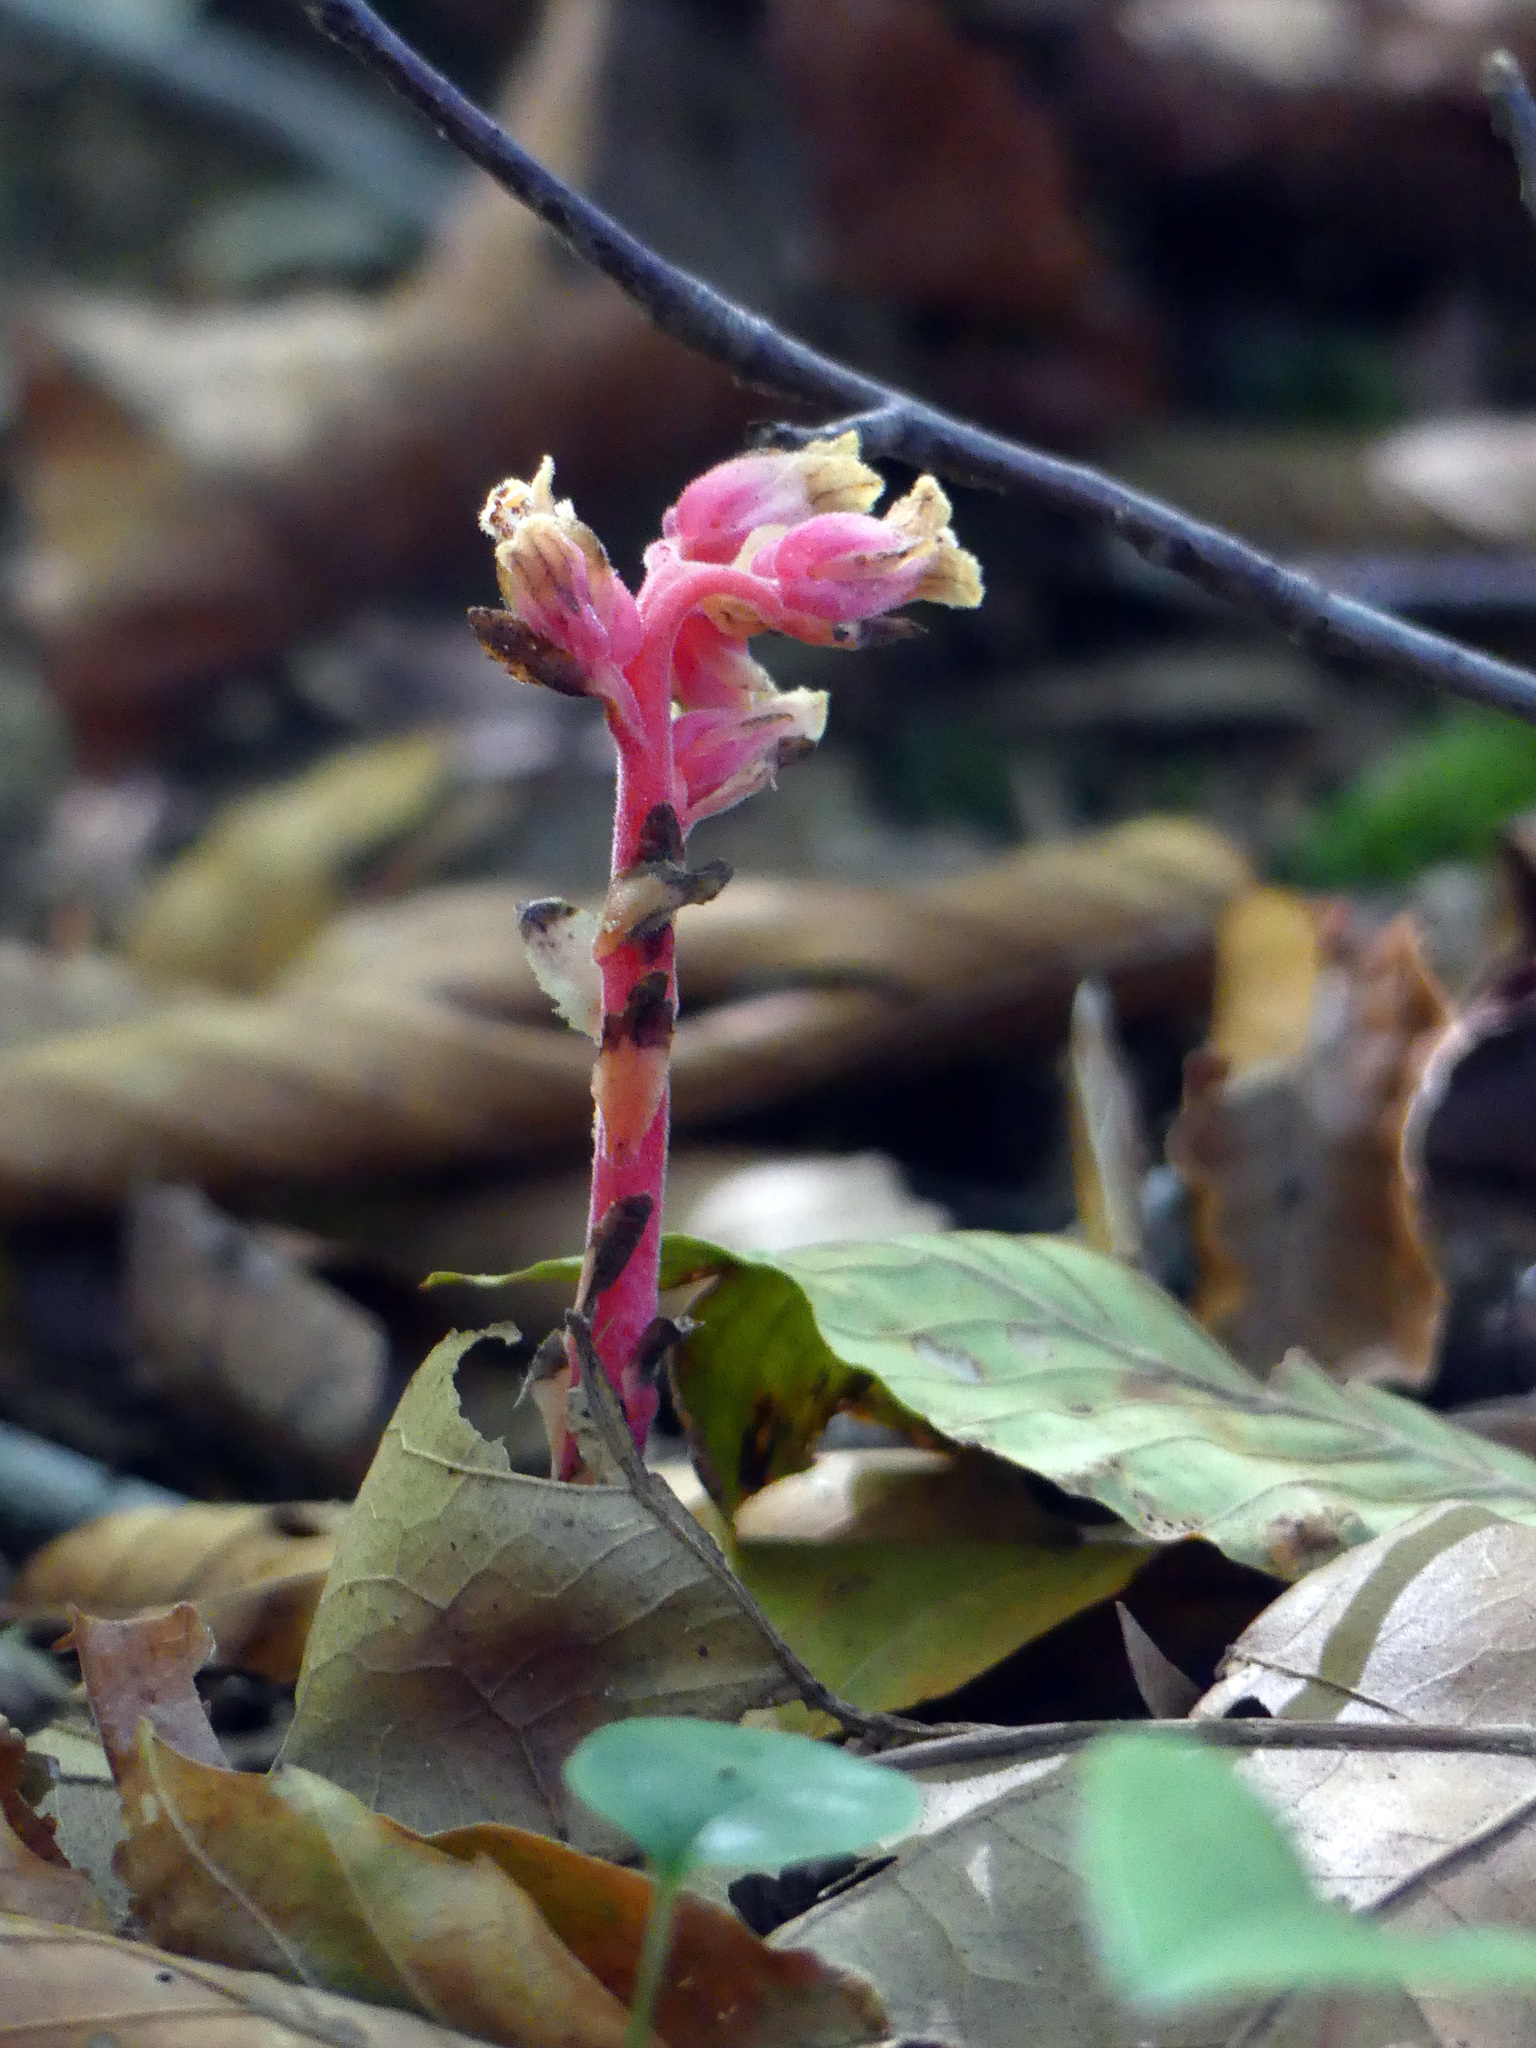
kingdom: Plantae
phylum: Tracheophyta
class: Magnoliopsida
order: Ericales
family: Ericaceae
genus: Hypopitys
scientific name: Hypopitys monotropa
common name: Yellow bird's-nest
